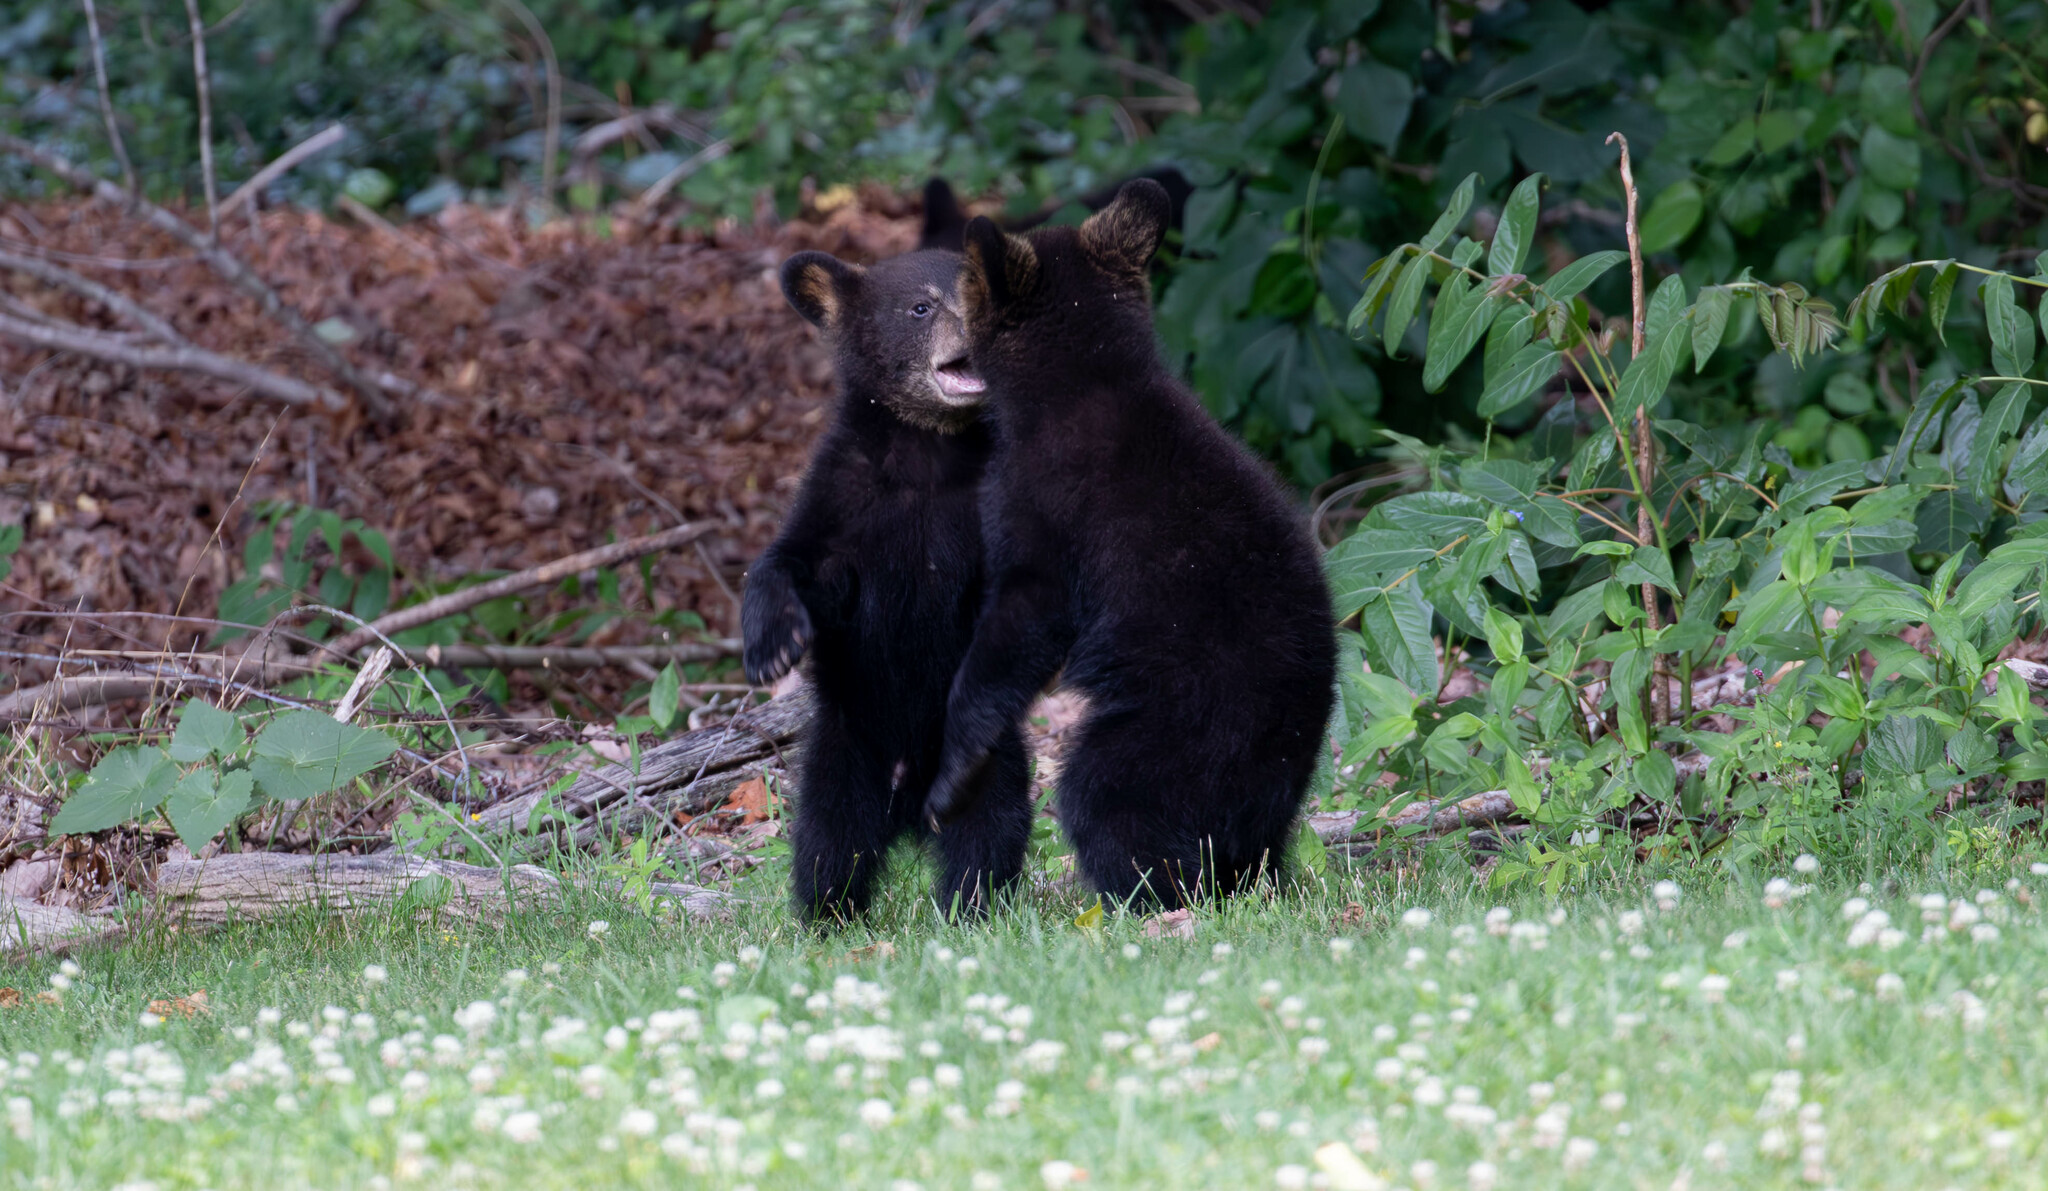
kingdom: Animalia
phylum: Chordata
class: Mammalia
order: Carnivora
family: Ursidae
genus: Ursus
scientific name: Ursus americanus
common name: American black bear
